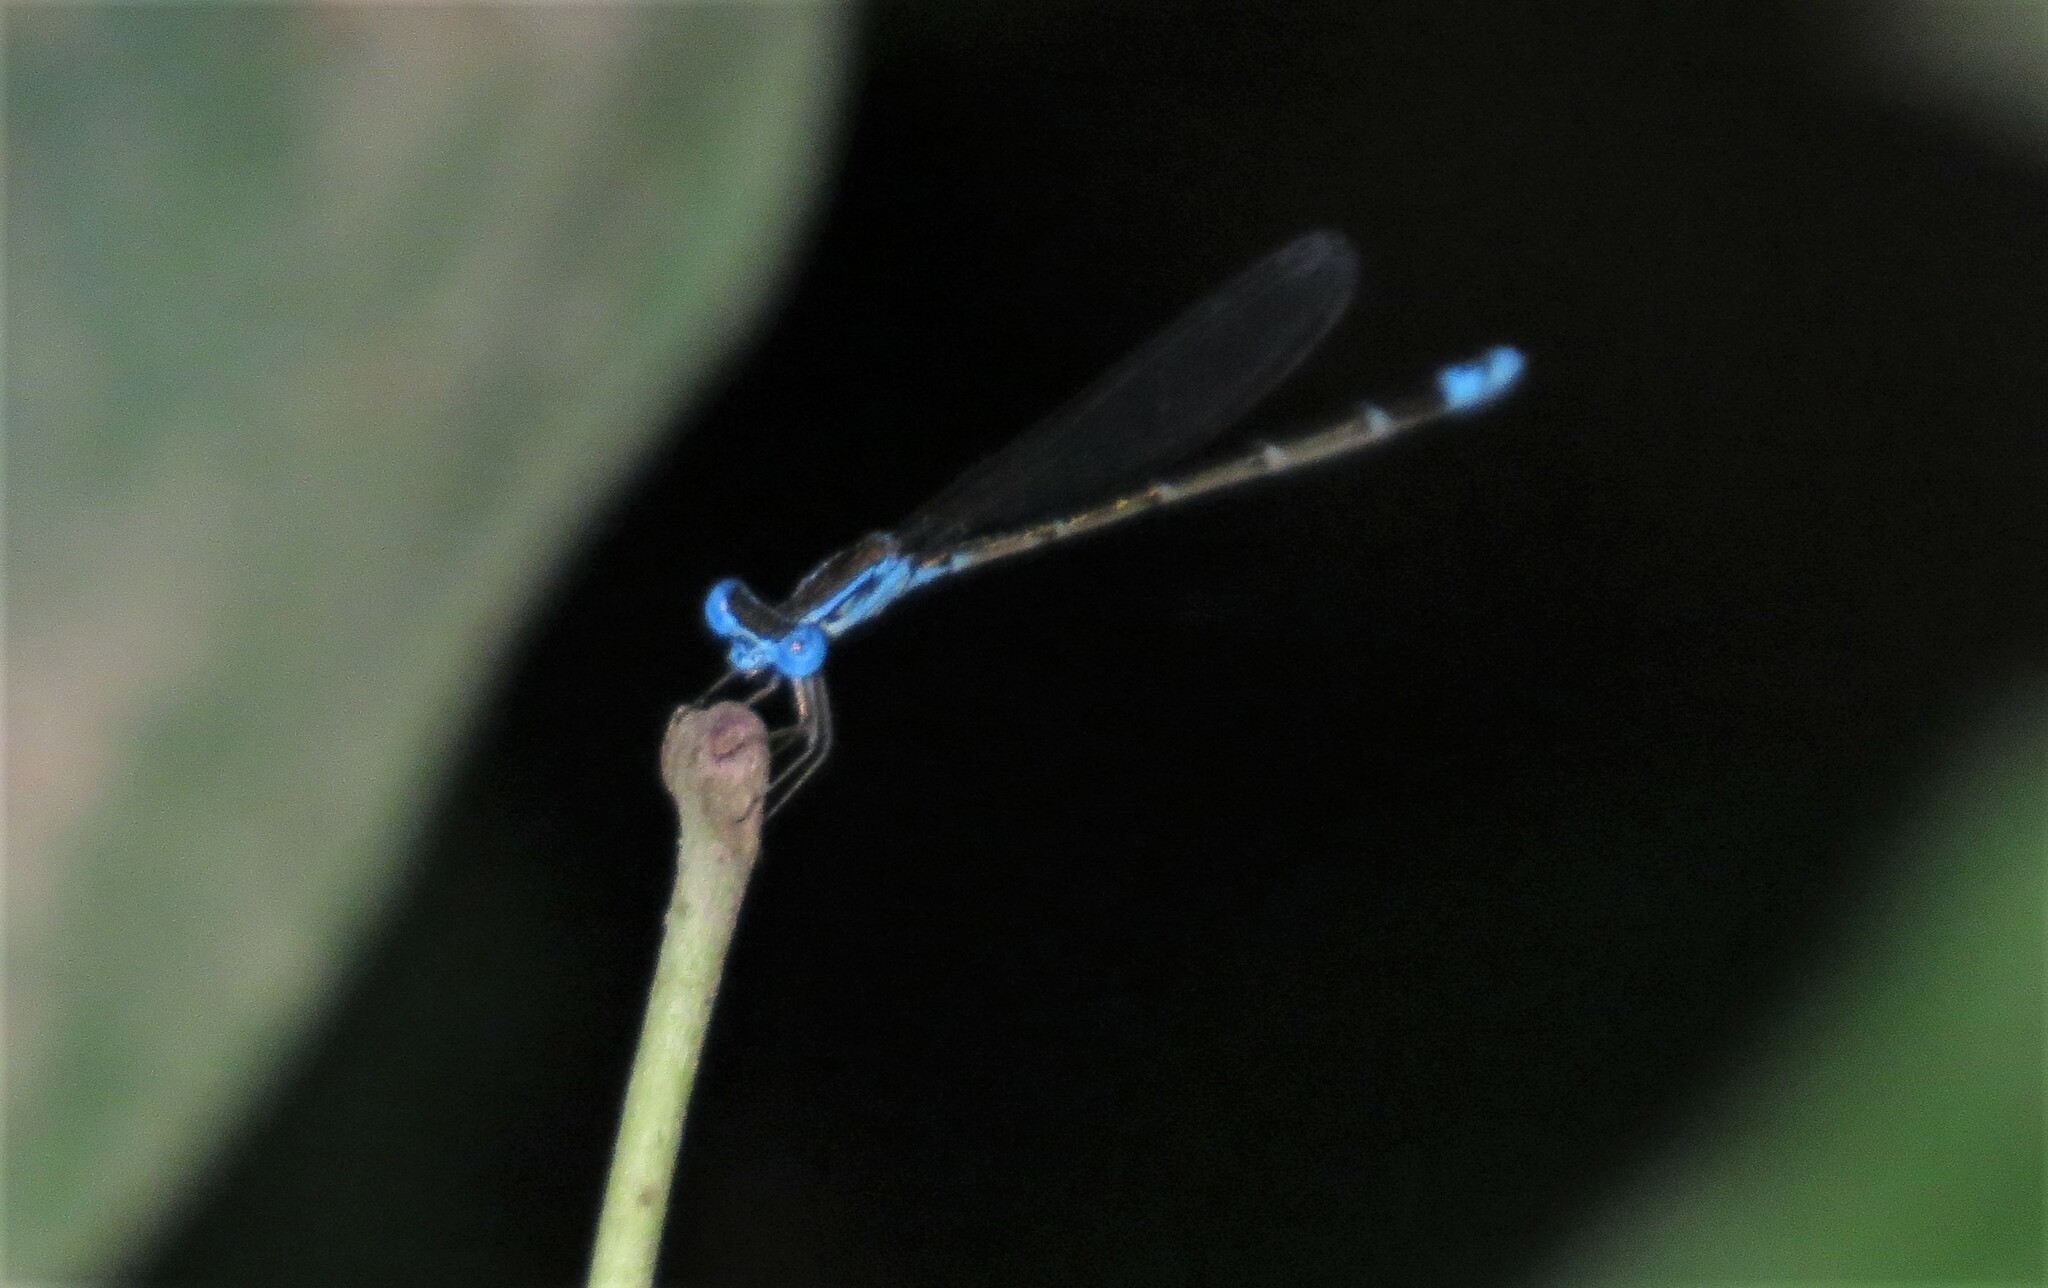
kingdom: Animalia
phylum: Arthropoda
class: Insecta
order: Odonata
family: Coenagrionidae
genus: Nehalennia
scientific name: Nehalennia minuta
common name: Tropical sprite
